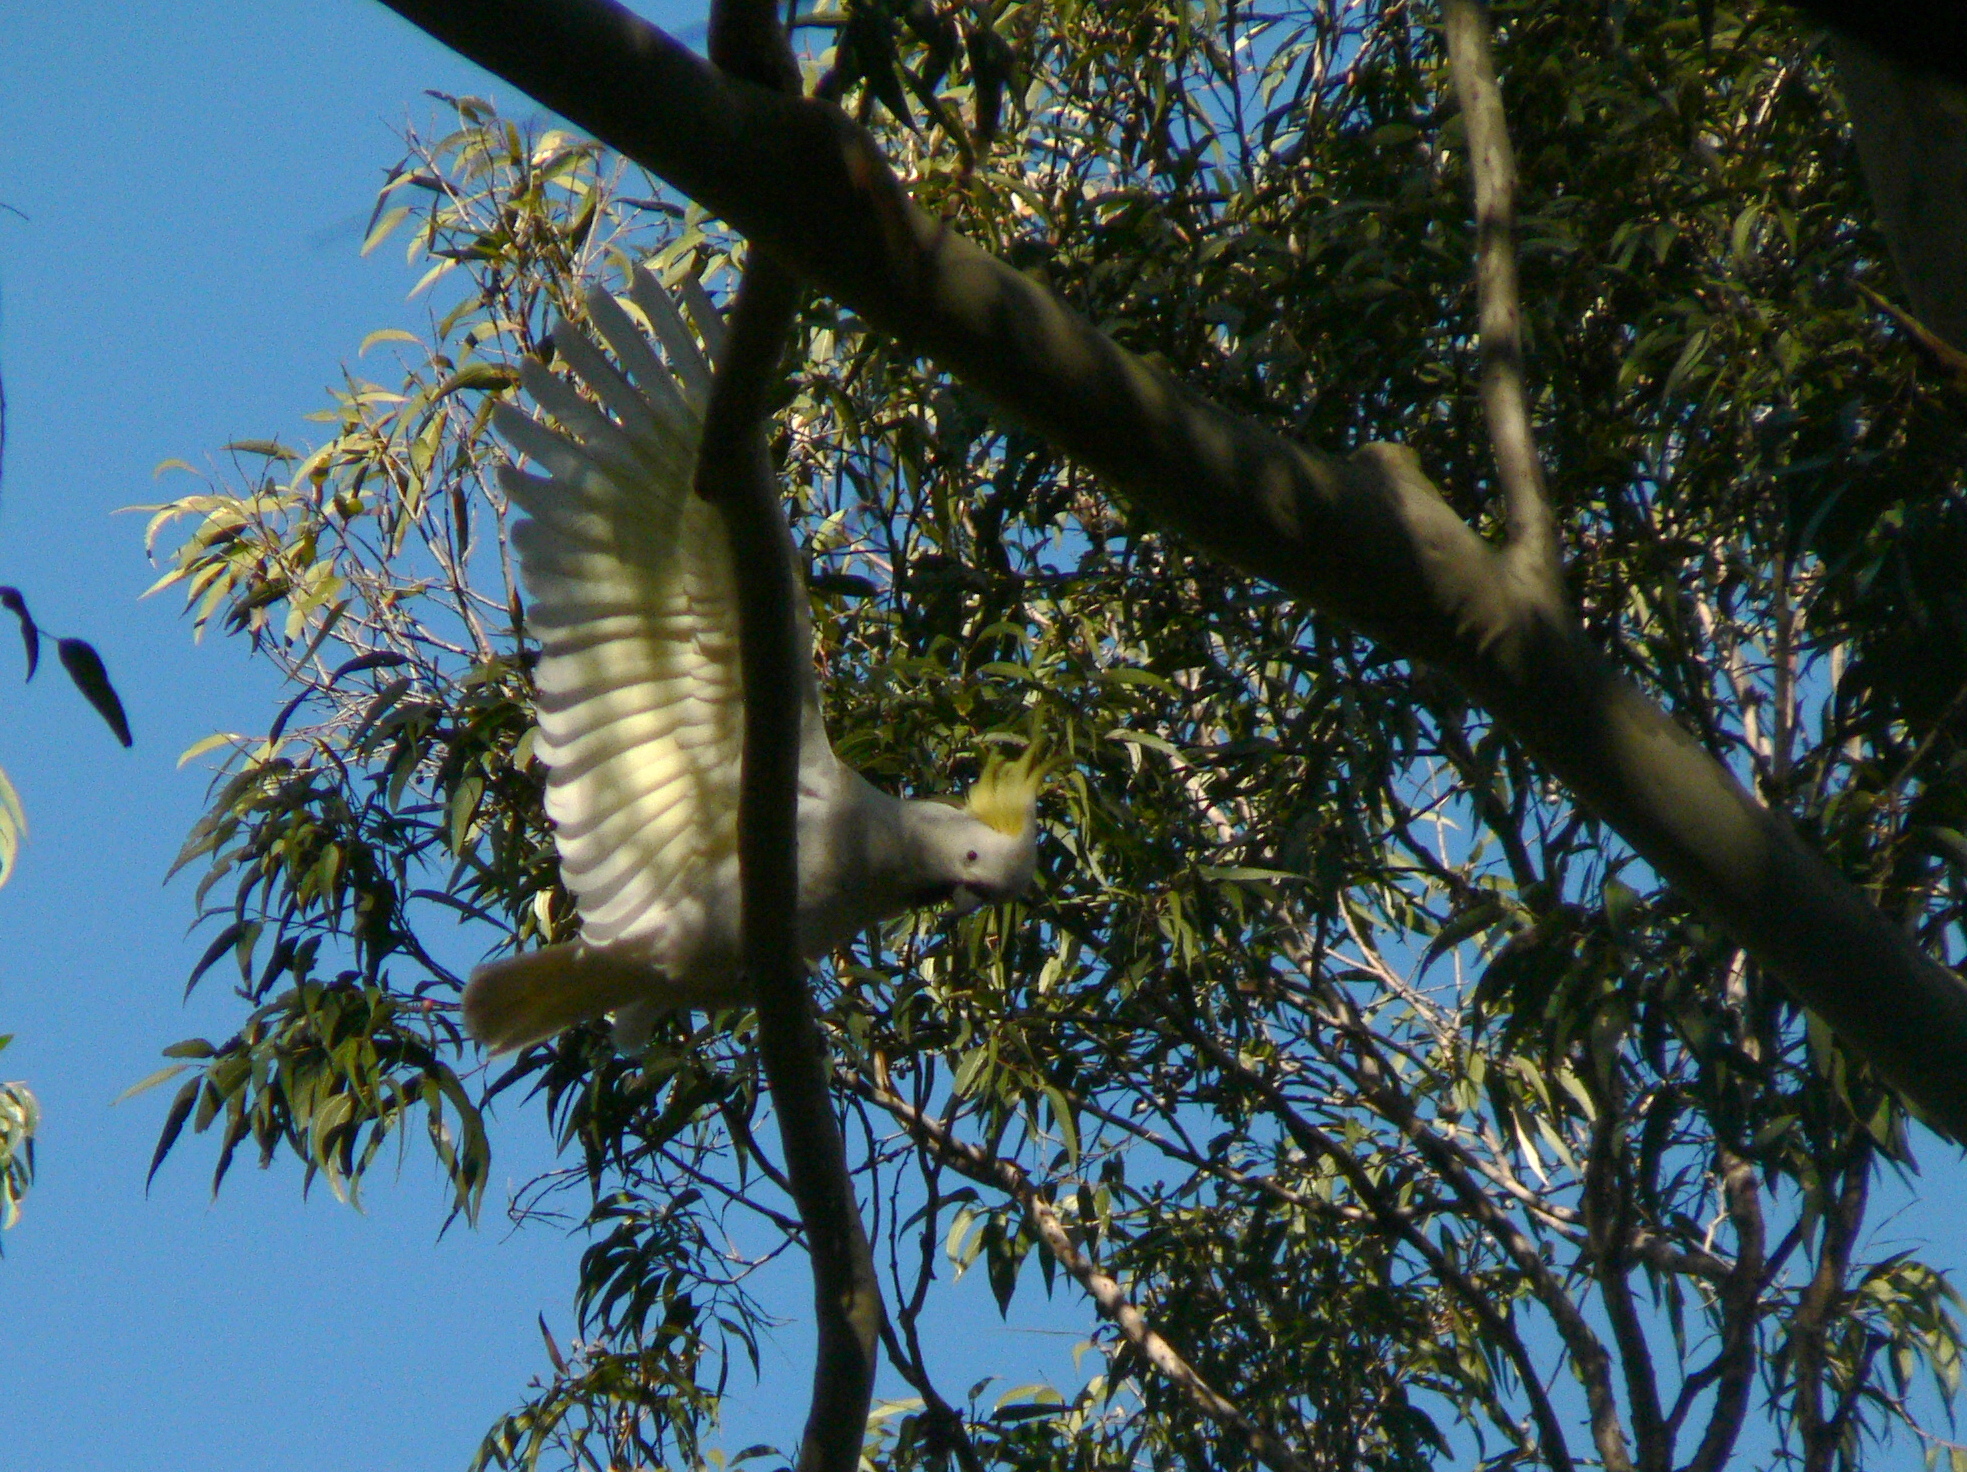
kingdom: Animalia
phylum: Chordata
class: Aves
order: Psittaciformes
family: Psittacidae
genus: Cacatua
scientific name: Cacatua galerita
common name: Sulphur-crested cockatoo
